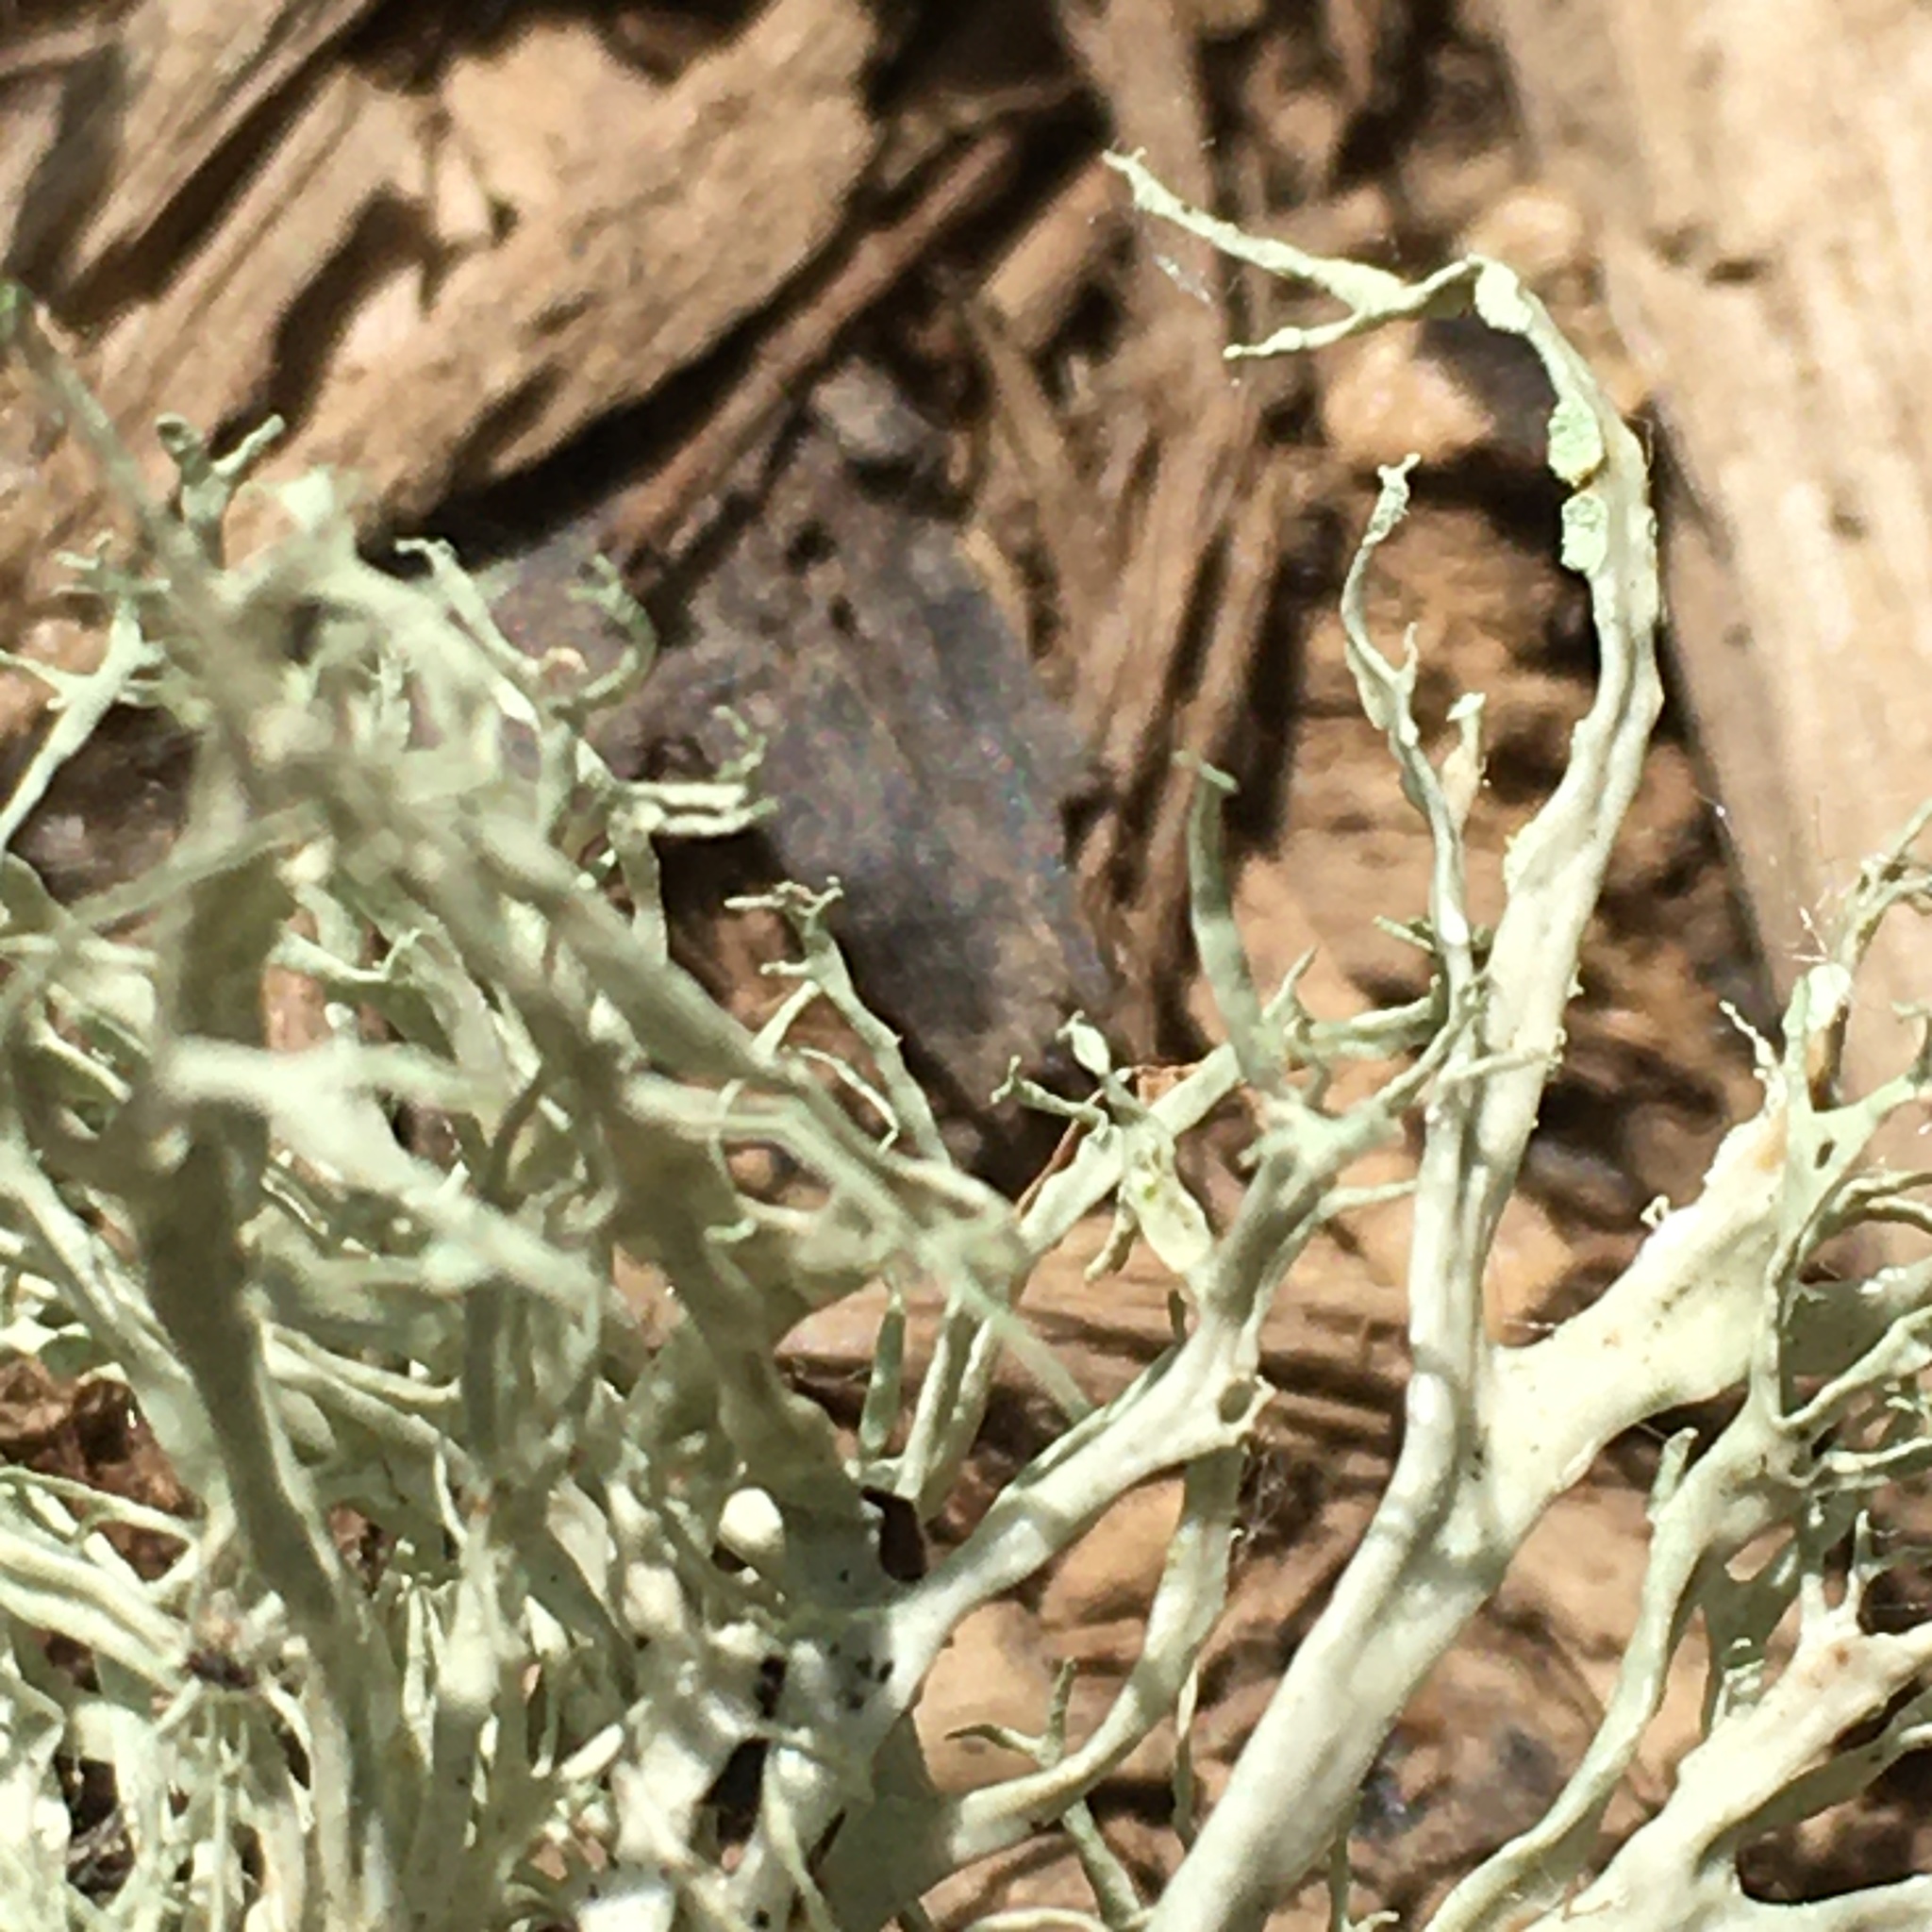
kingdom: Fungi
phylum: Ascomycota
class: Lecanoromycetes
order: Lecanorales
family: Ramalinaceae
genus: Ramalina
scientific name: Ramalina farinacea
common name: Farinose cartilage lichen
